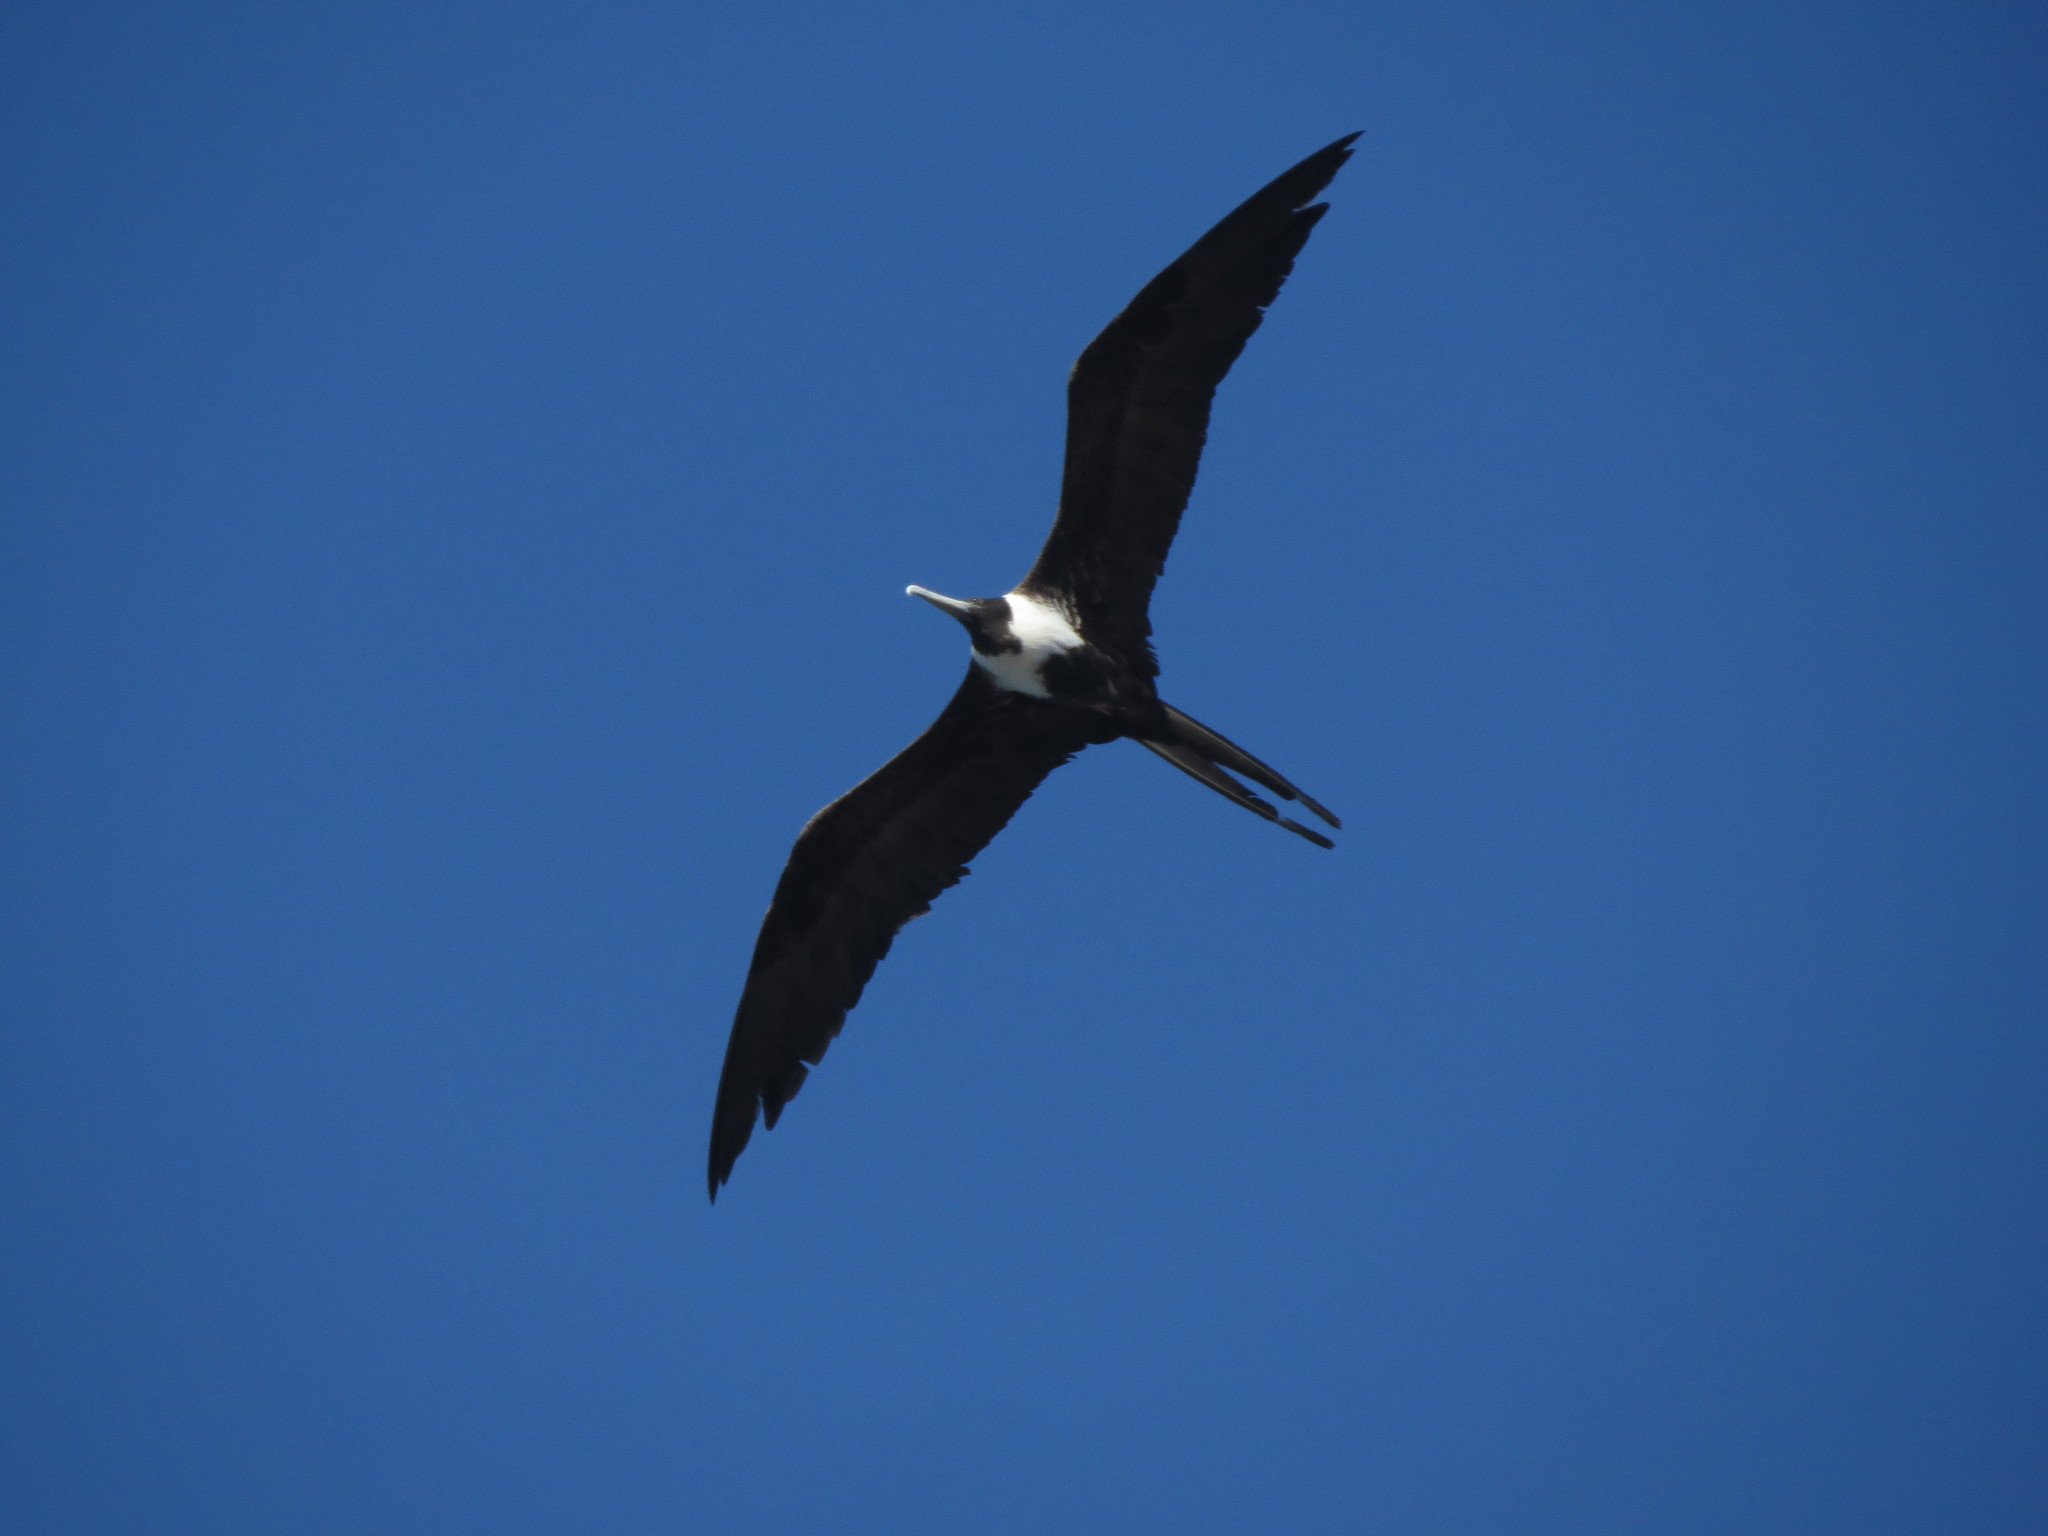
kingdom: Animalia
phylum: Chordata
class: Aves
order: Suliformes
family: Fregatidae
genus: Fregata
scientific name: Fregata magnificens
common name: Magnificent frigatebird
